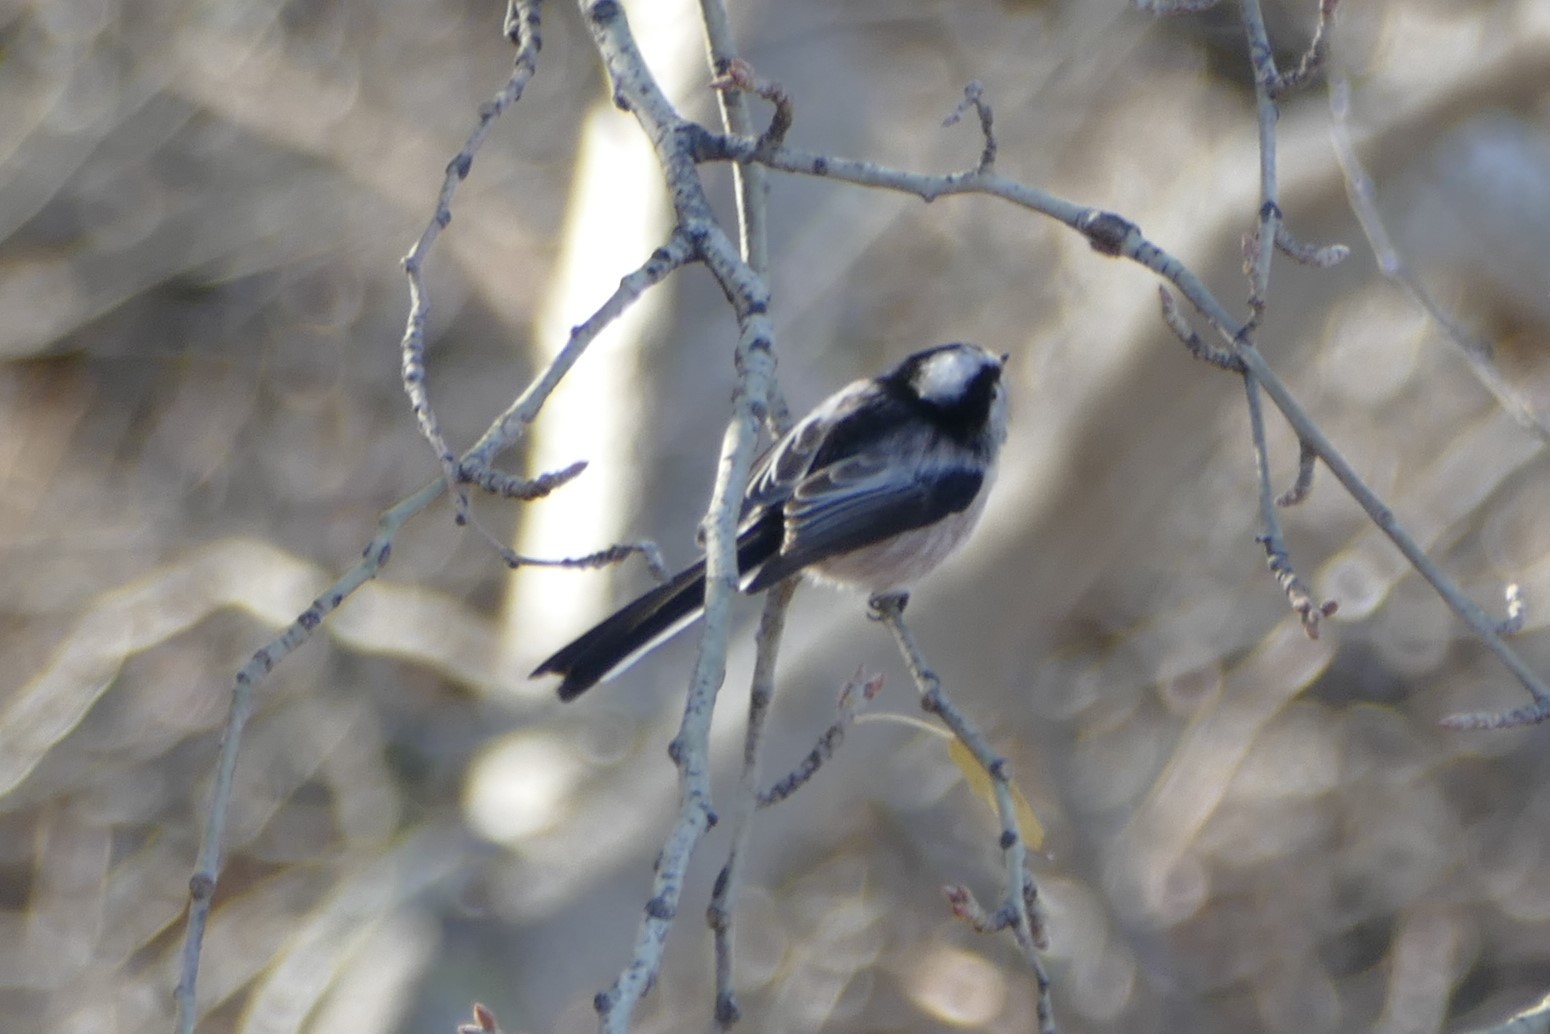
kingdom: Animalia
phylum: Chordata
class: Aves
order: Passeriformes
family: Aegithalidae
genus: Aegithalos
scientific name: Aegithalos caudatus
